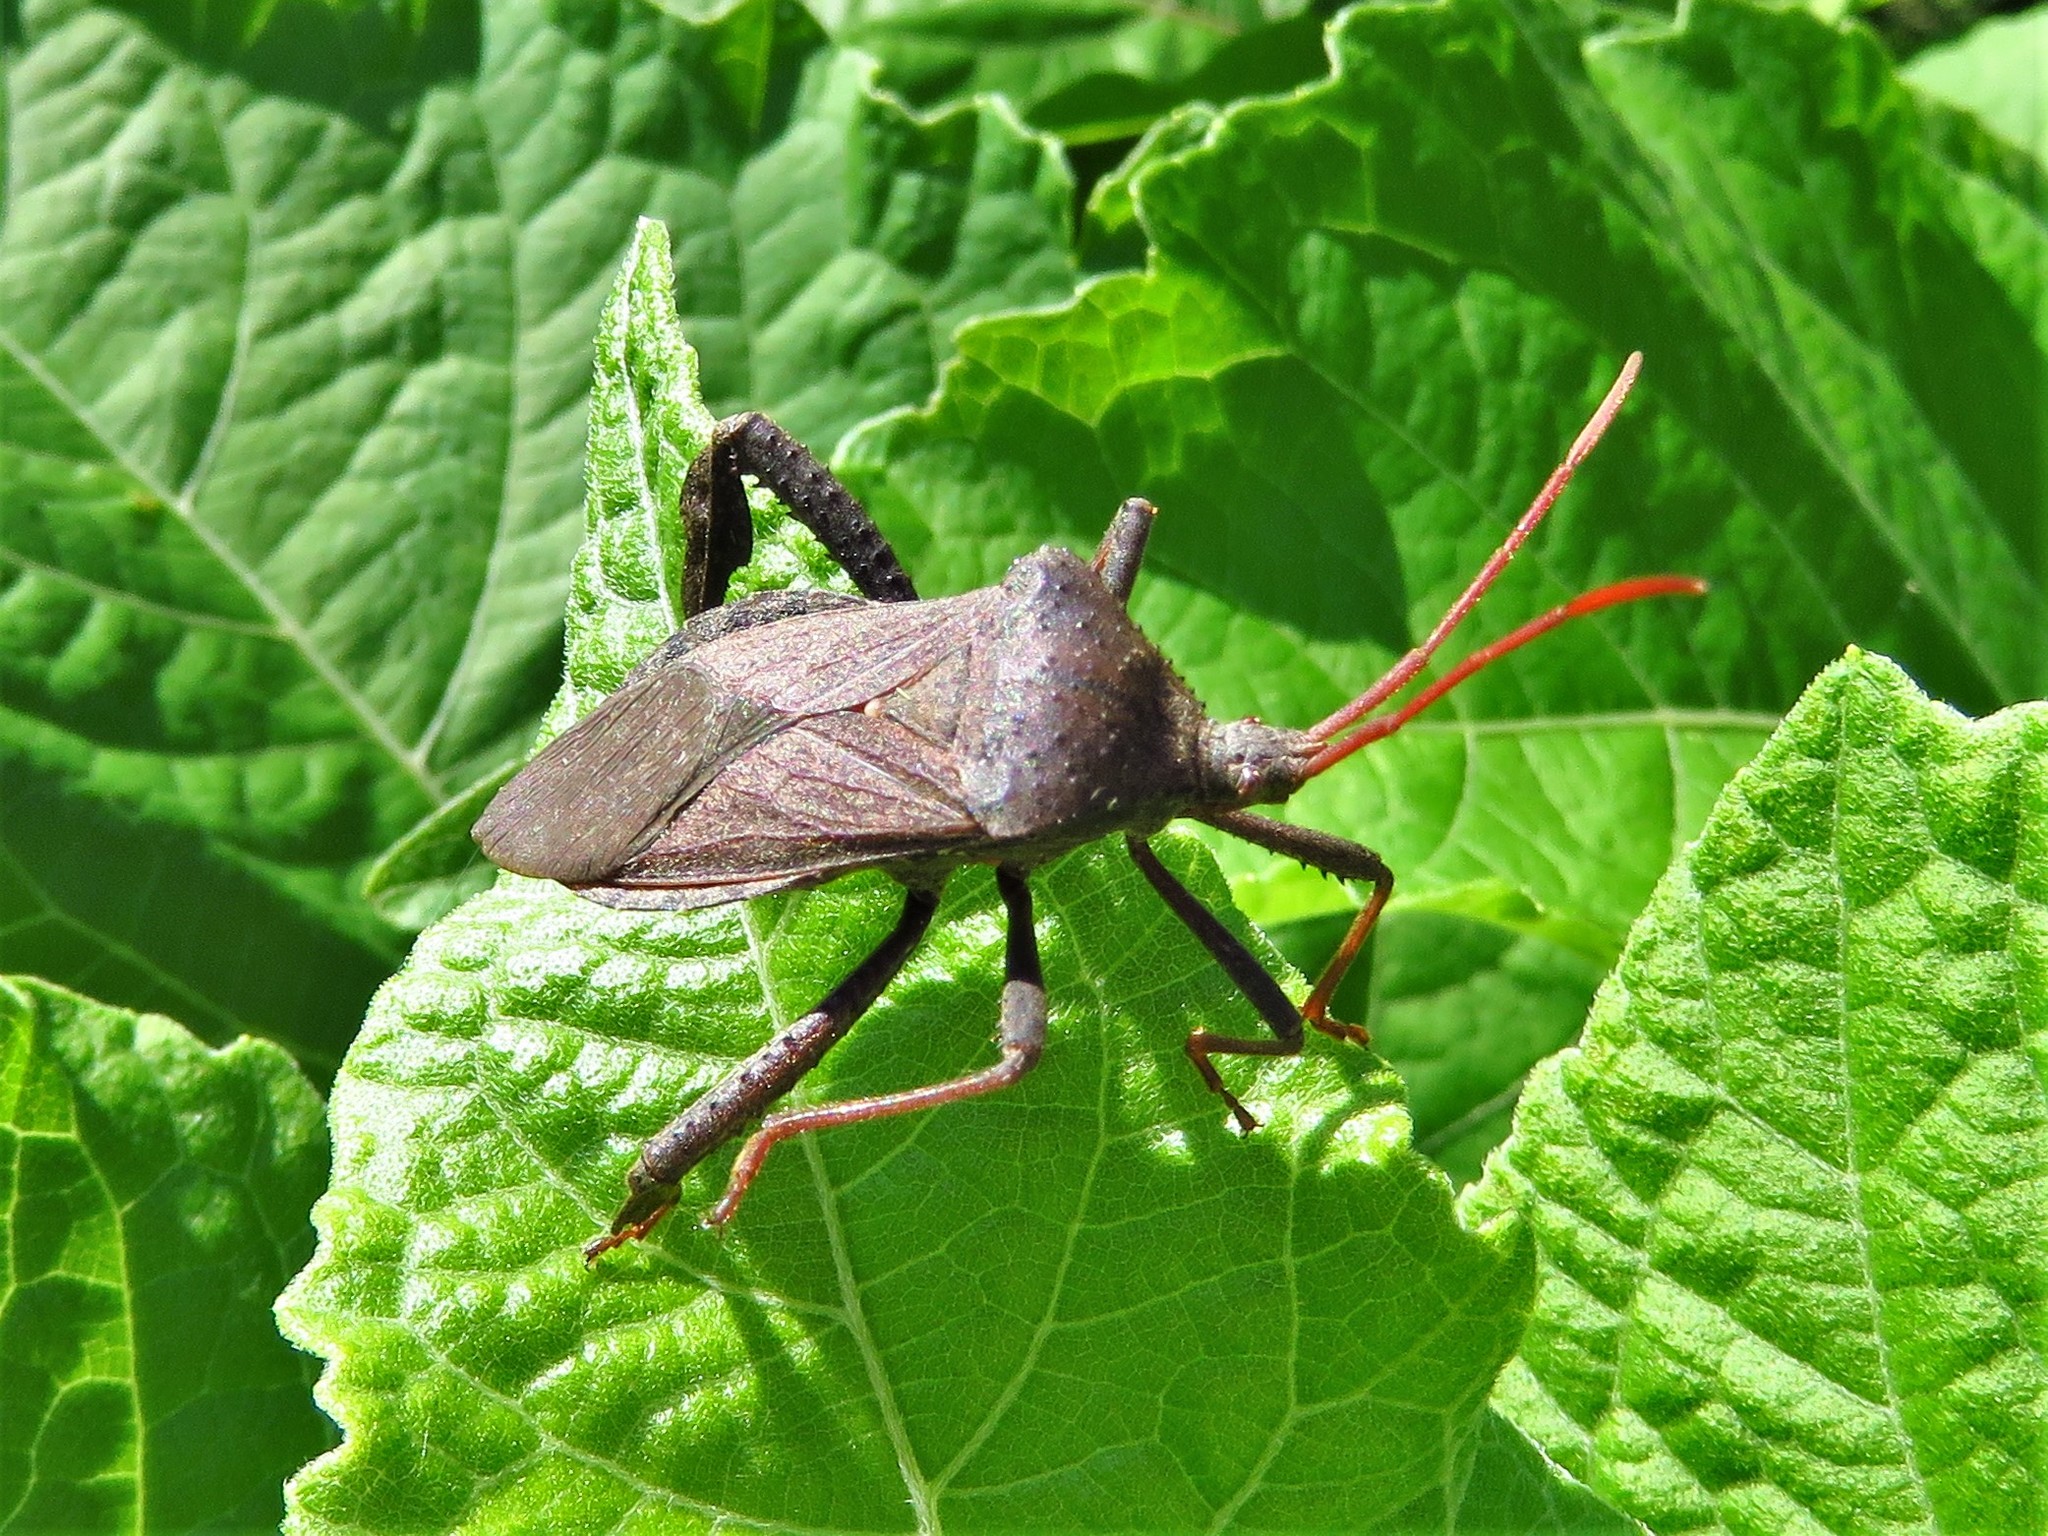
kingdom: Animalia
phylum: Arthropoda
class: Insecta
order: Hemiptera
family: Coreidae
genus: Acanthocephala
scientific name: Acanthocephala femorata
